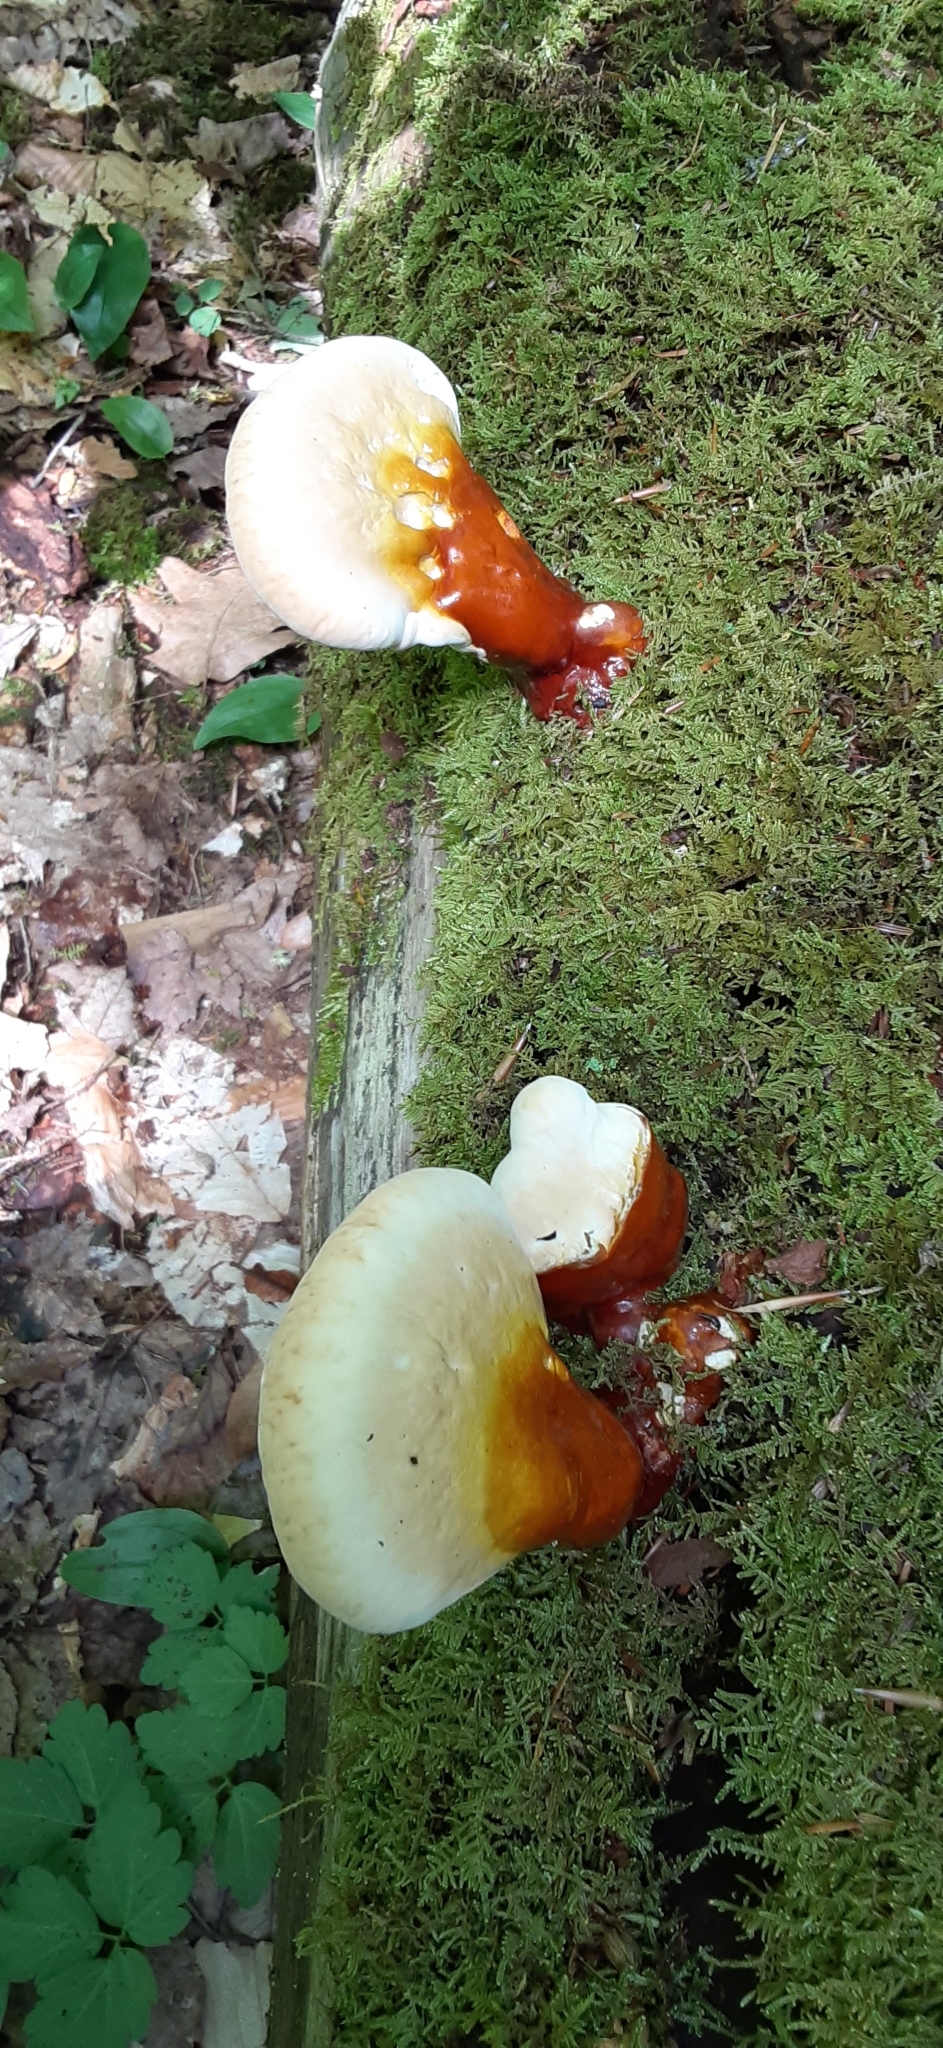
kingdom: Fungi
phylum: Basidiomycota
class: Agaricomycetes
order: Polyporales
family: Polyporaceae
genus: Ganoderma
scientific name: Ganoderma tsugae
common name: Hemlock varnish shelf
